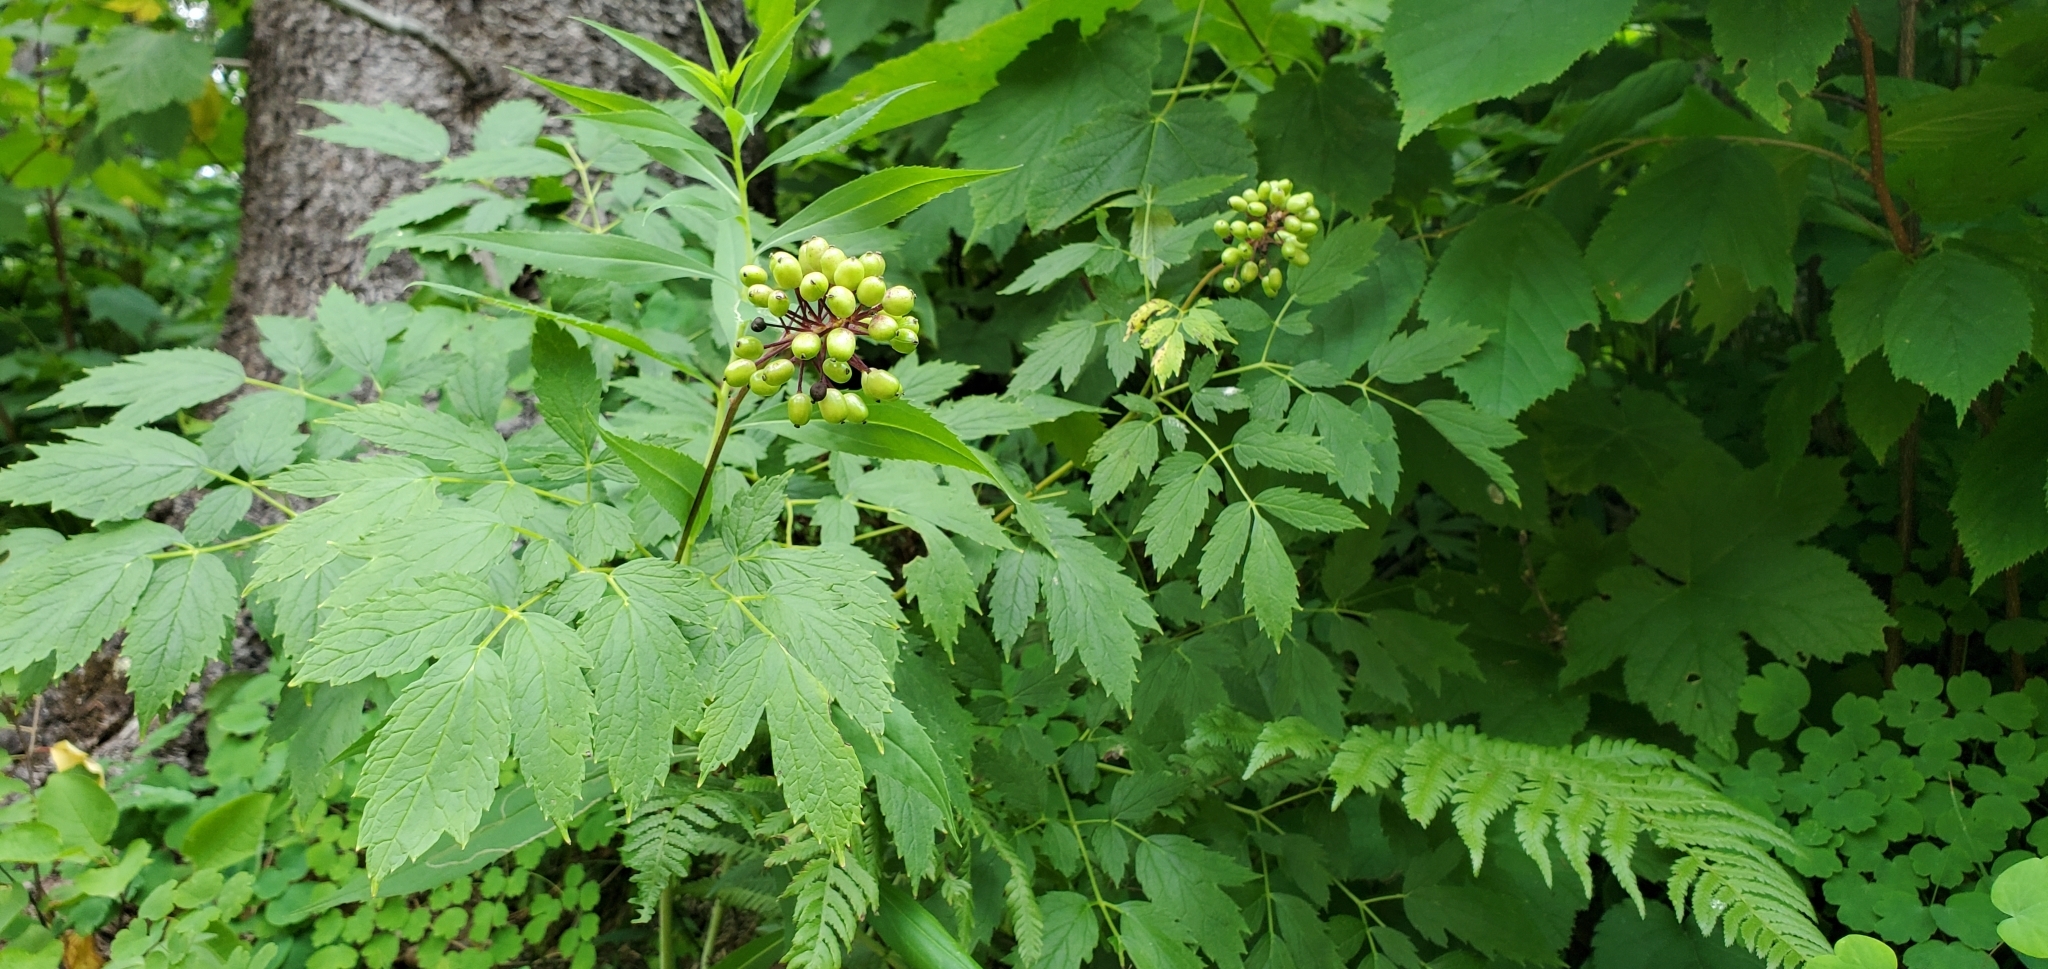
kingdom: Plantae
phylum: Tracheophyta
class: Magnoliopsida
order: Ranunculales
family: Ranunculaceae
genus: Actaea
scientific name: Actaea rubra
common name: Red baneberry
